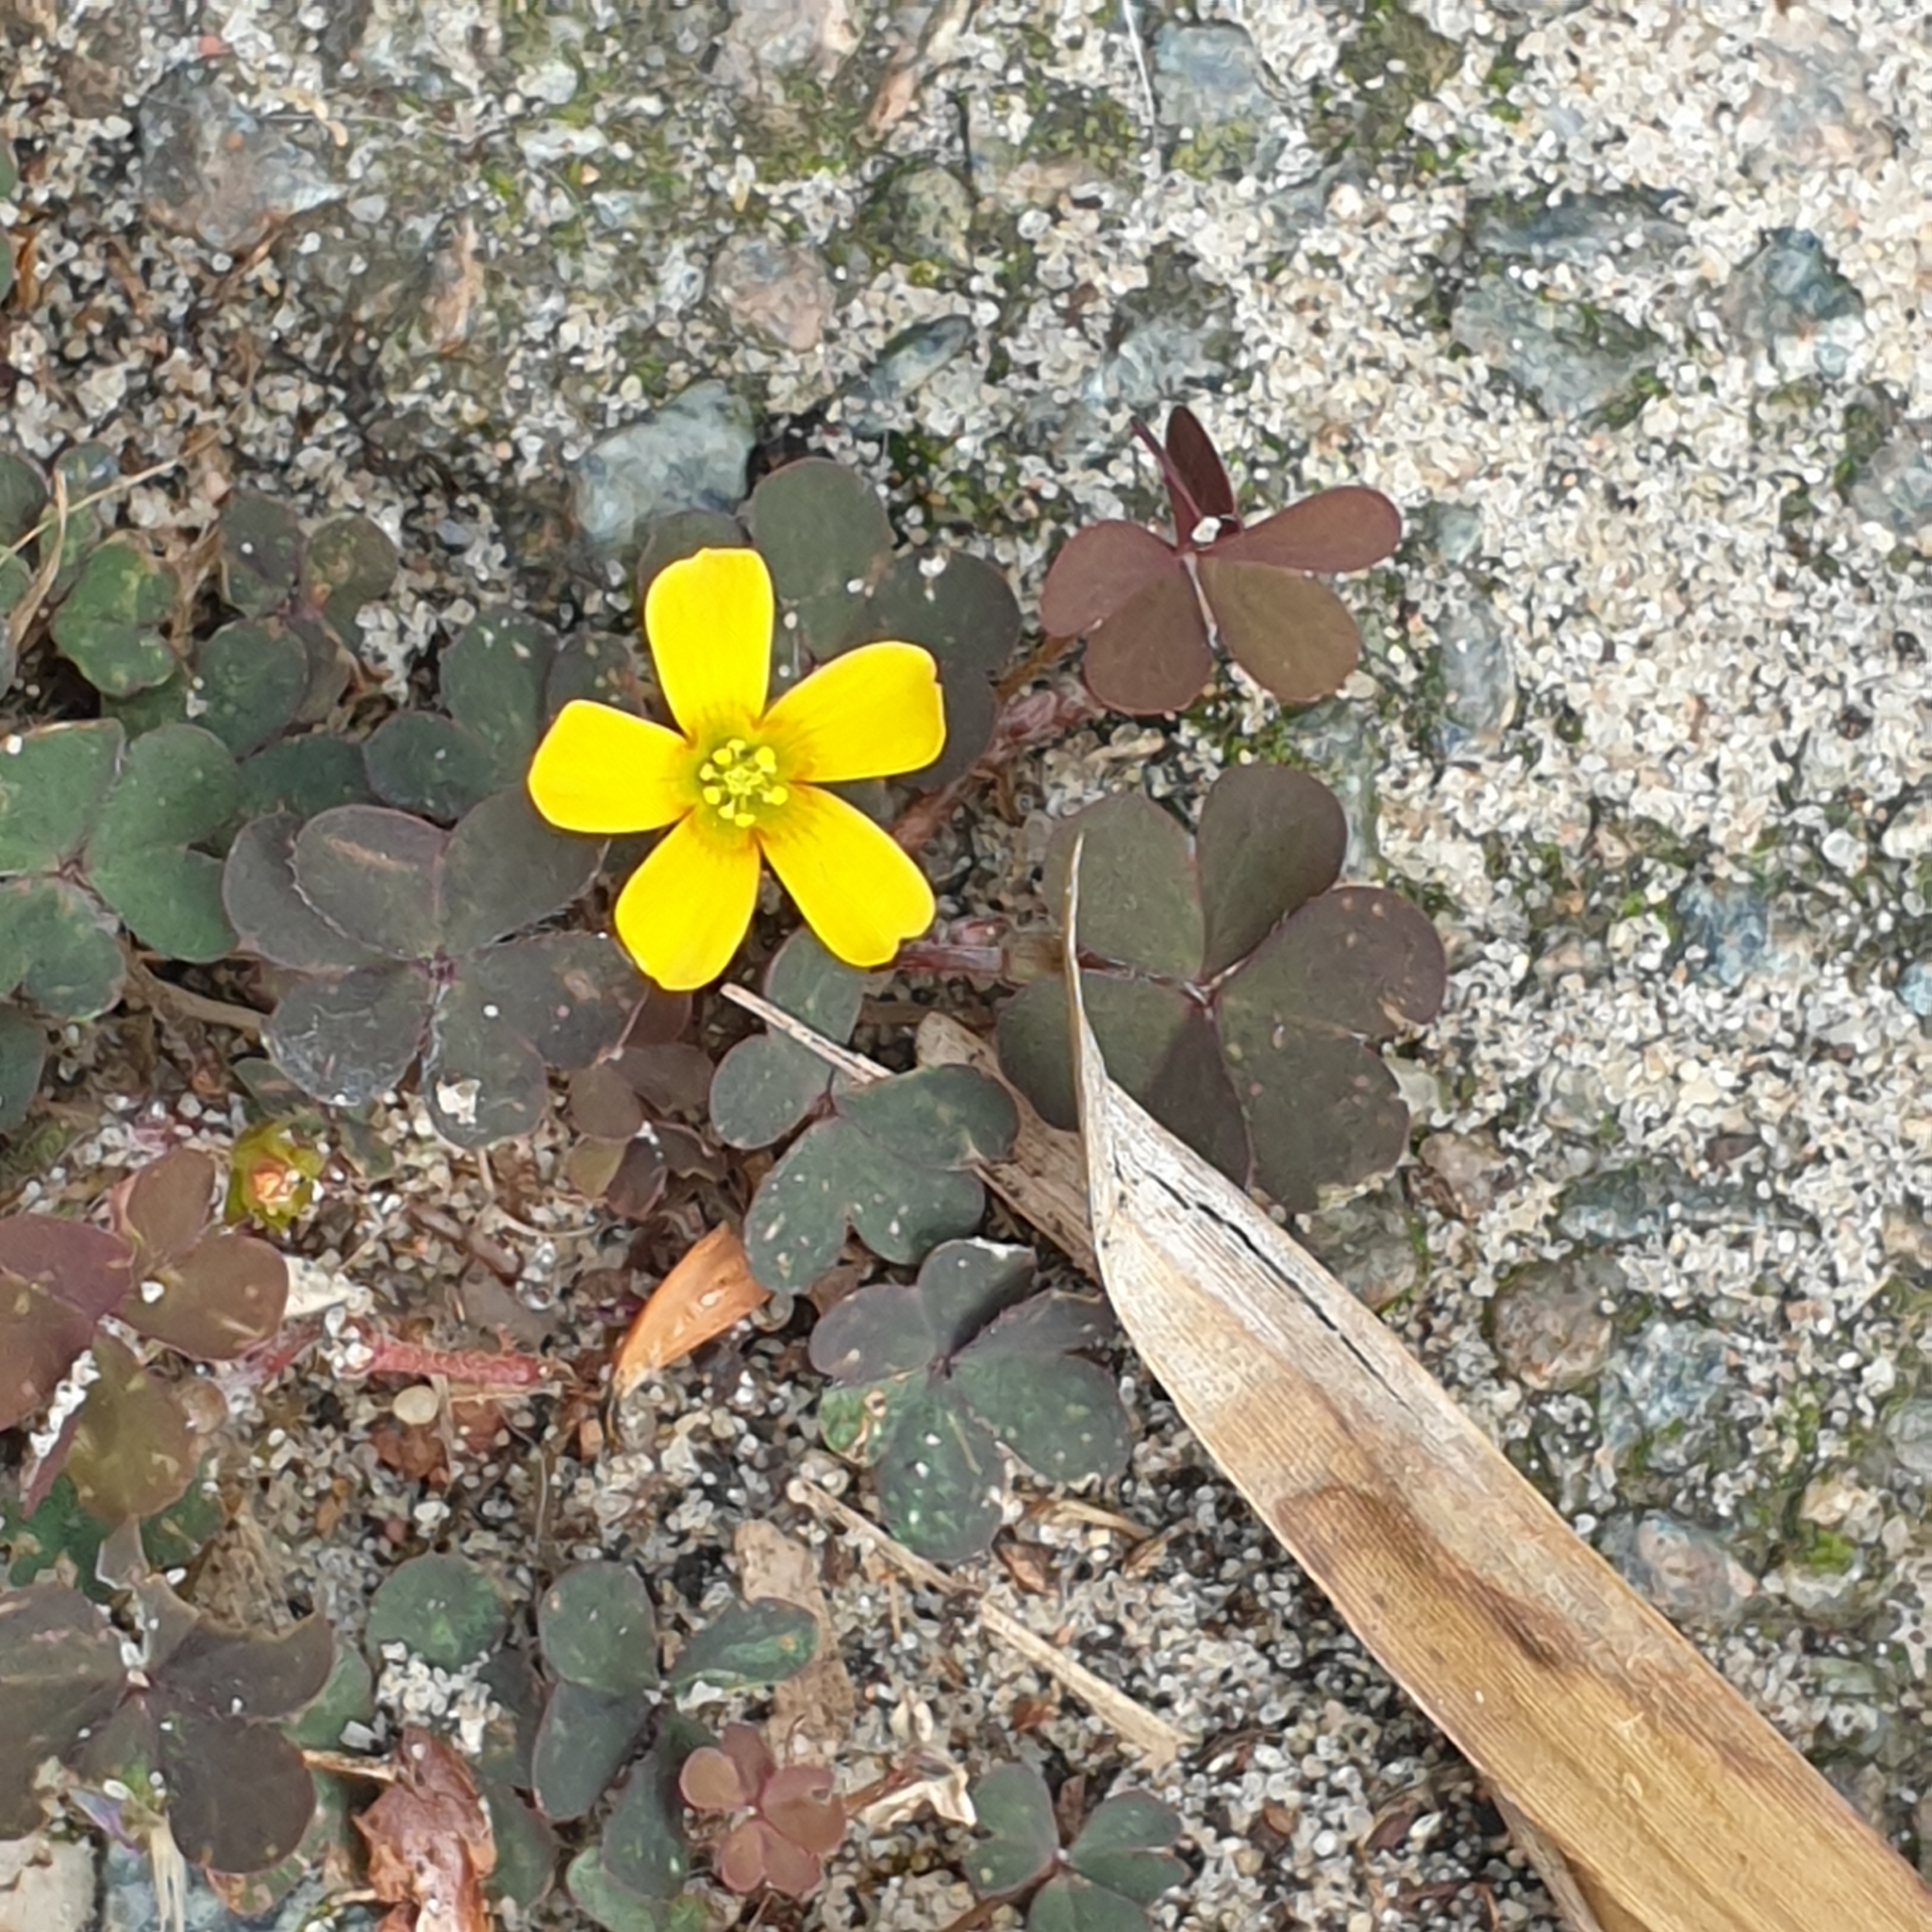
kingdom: Plantae
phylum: Tracheophyta
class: Magnoliopsida
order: Oxalidales
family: Oxalidaceae
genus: Oxalis
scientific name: Oxalis corniculata
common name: Procumbent yellow-sorrel
